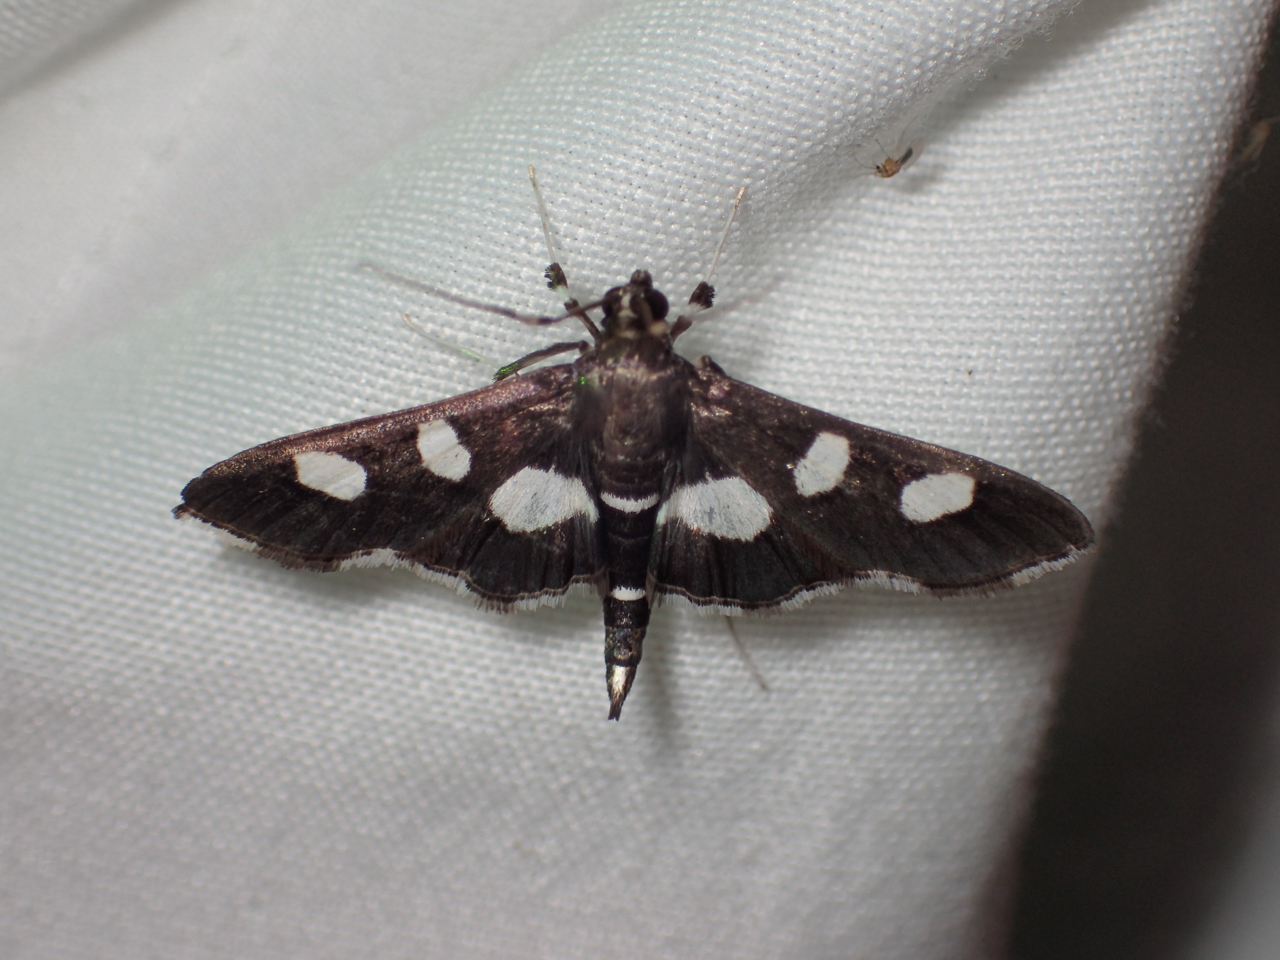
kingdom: Animalia
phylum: Arthropoda
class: Insecta
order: Lepidoptera
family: Crambidae
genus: Desmia
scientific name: Desmia
